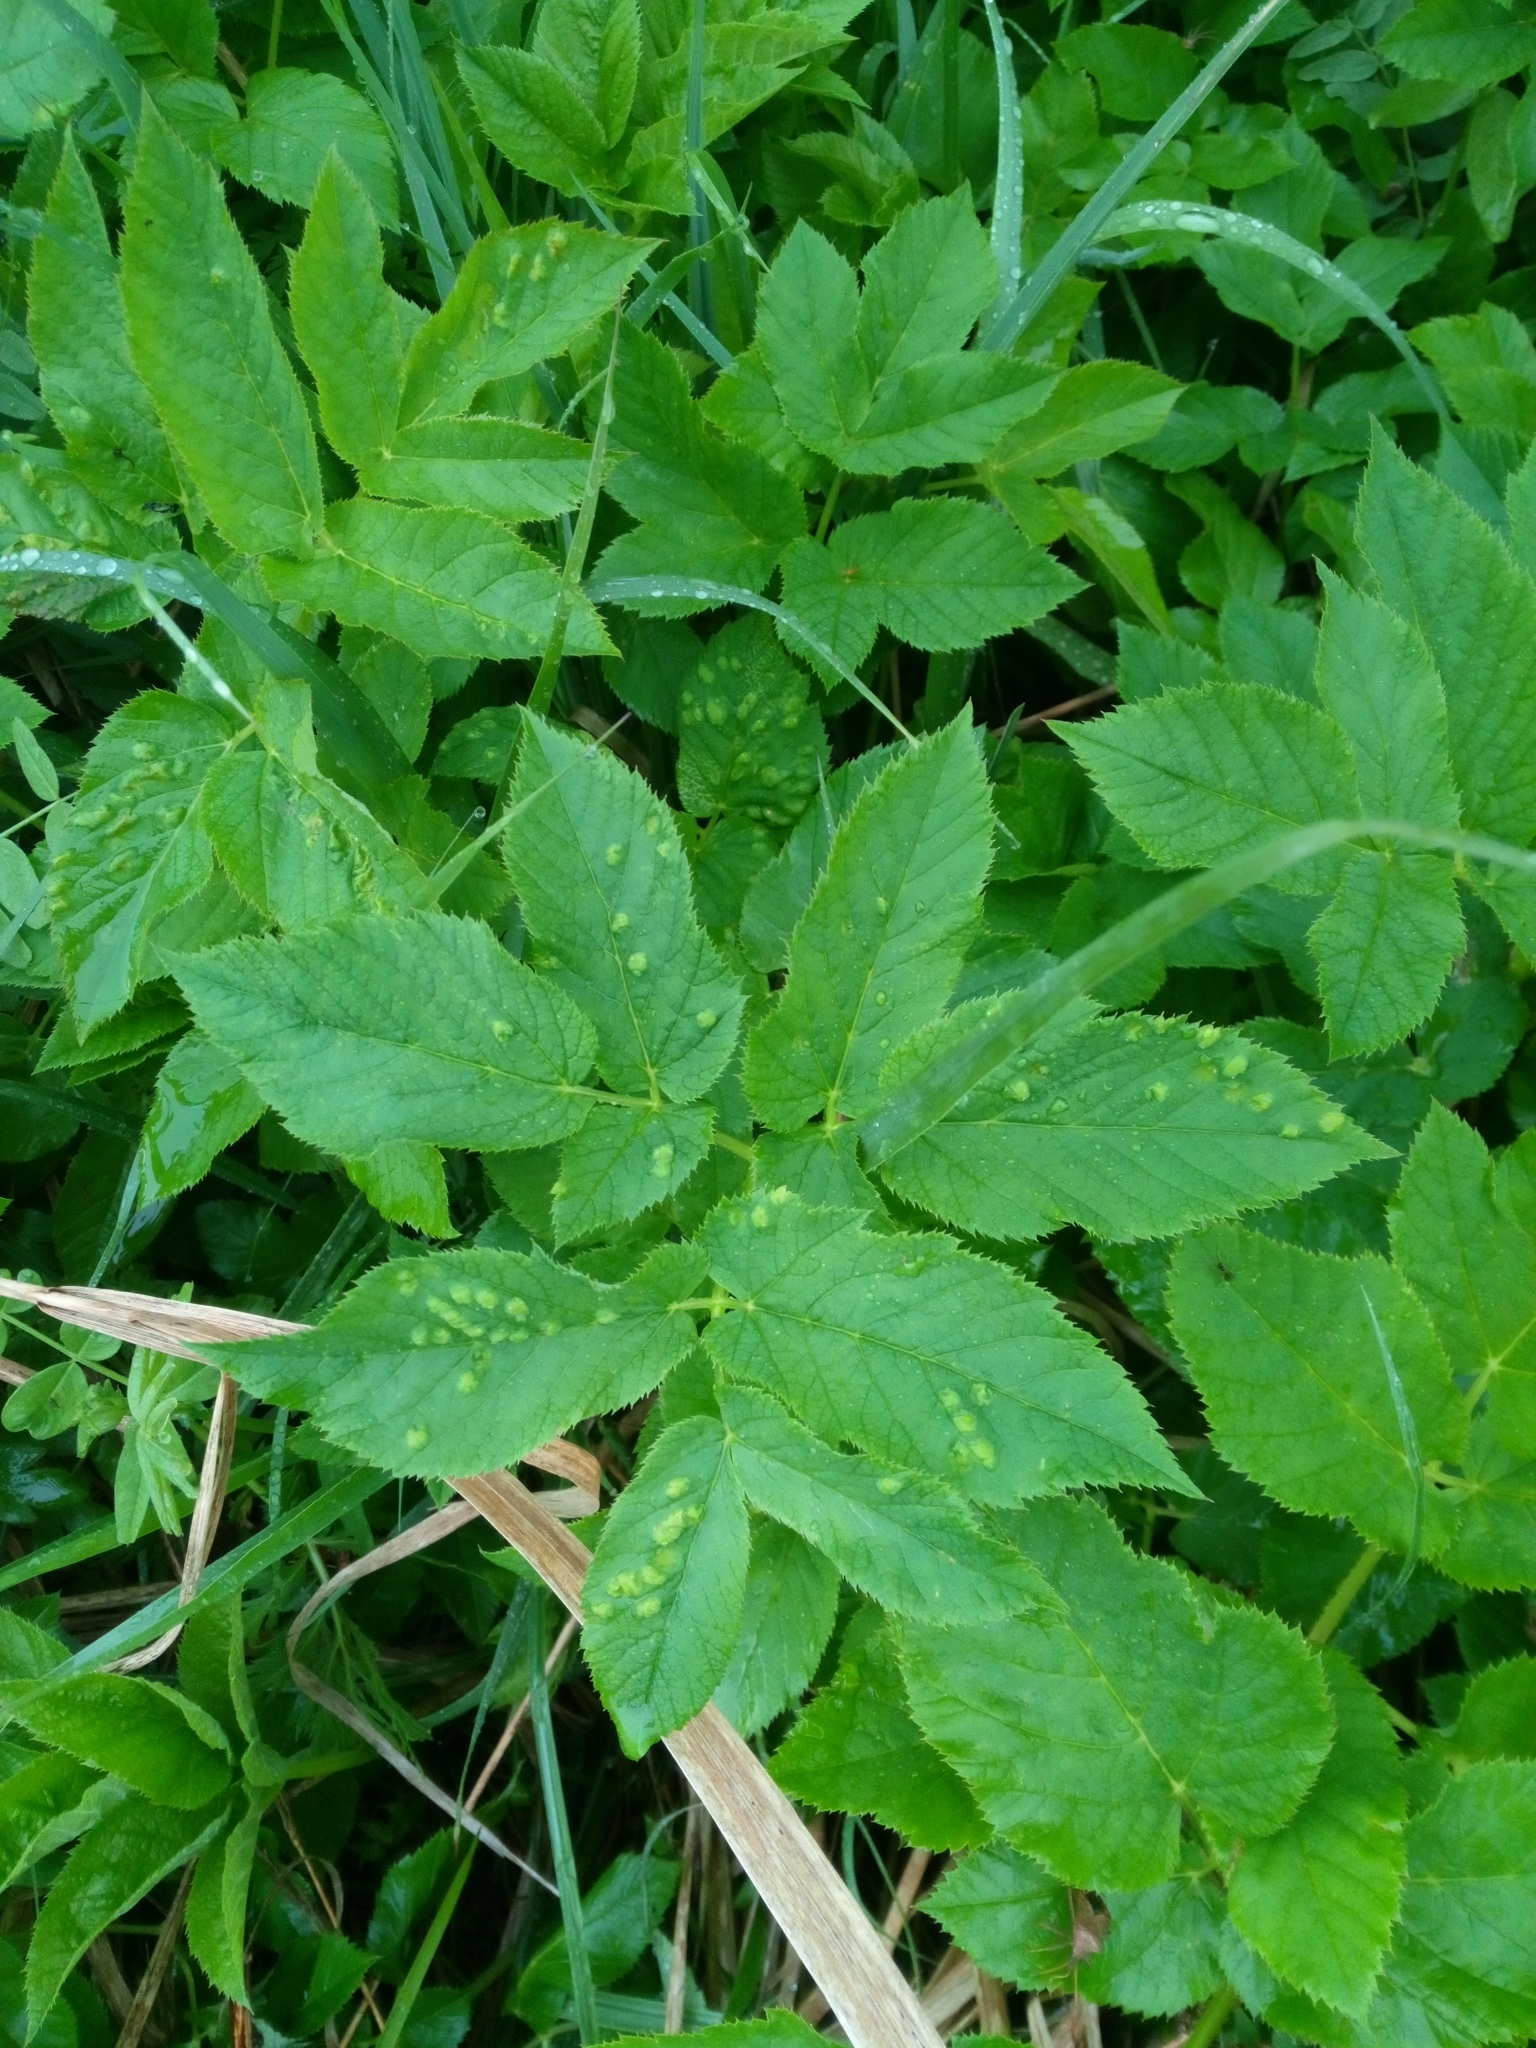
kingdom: Plantae
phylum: Tracheophyta
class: Magnoliopsida
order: Apiales
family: Apiaceae
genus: Aegopodium
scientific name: Aegopodium podagraria
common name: Ground-elder
